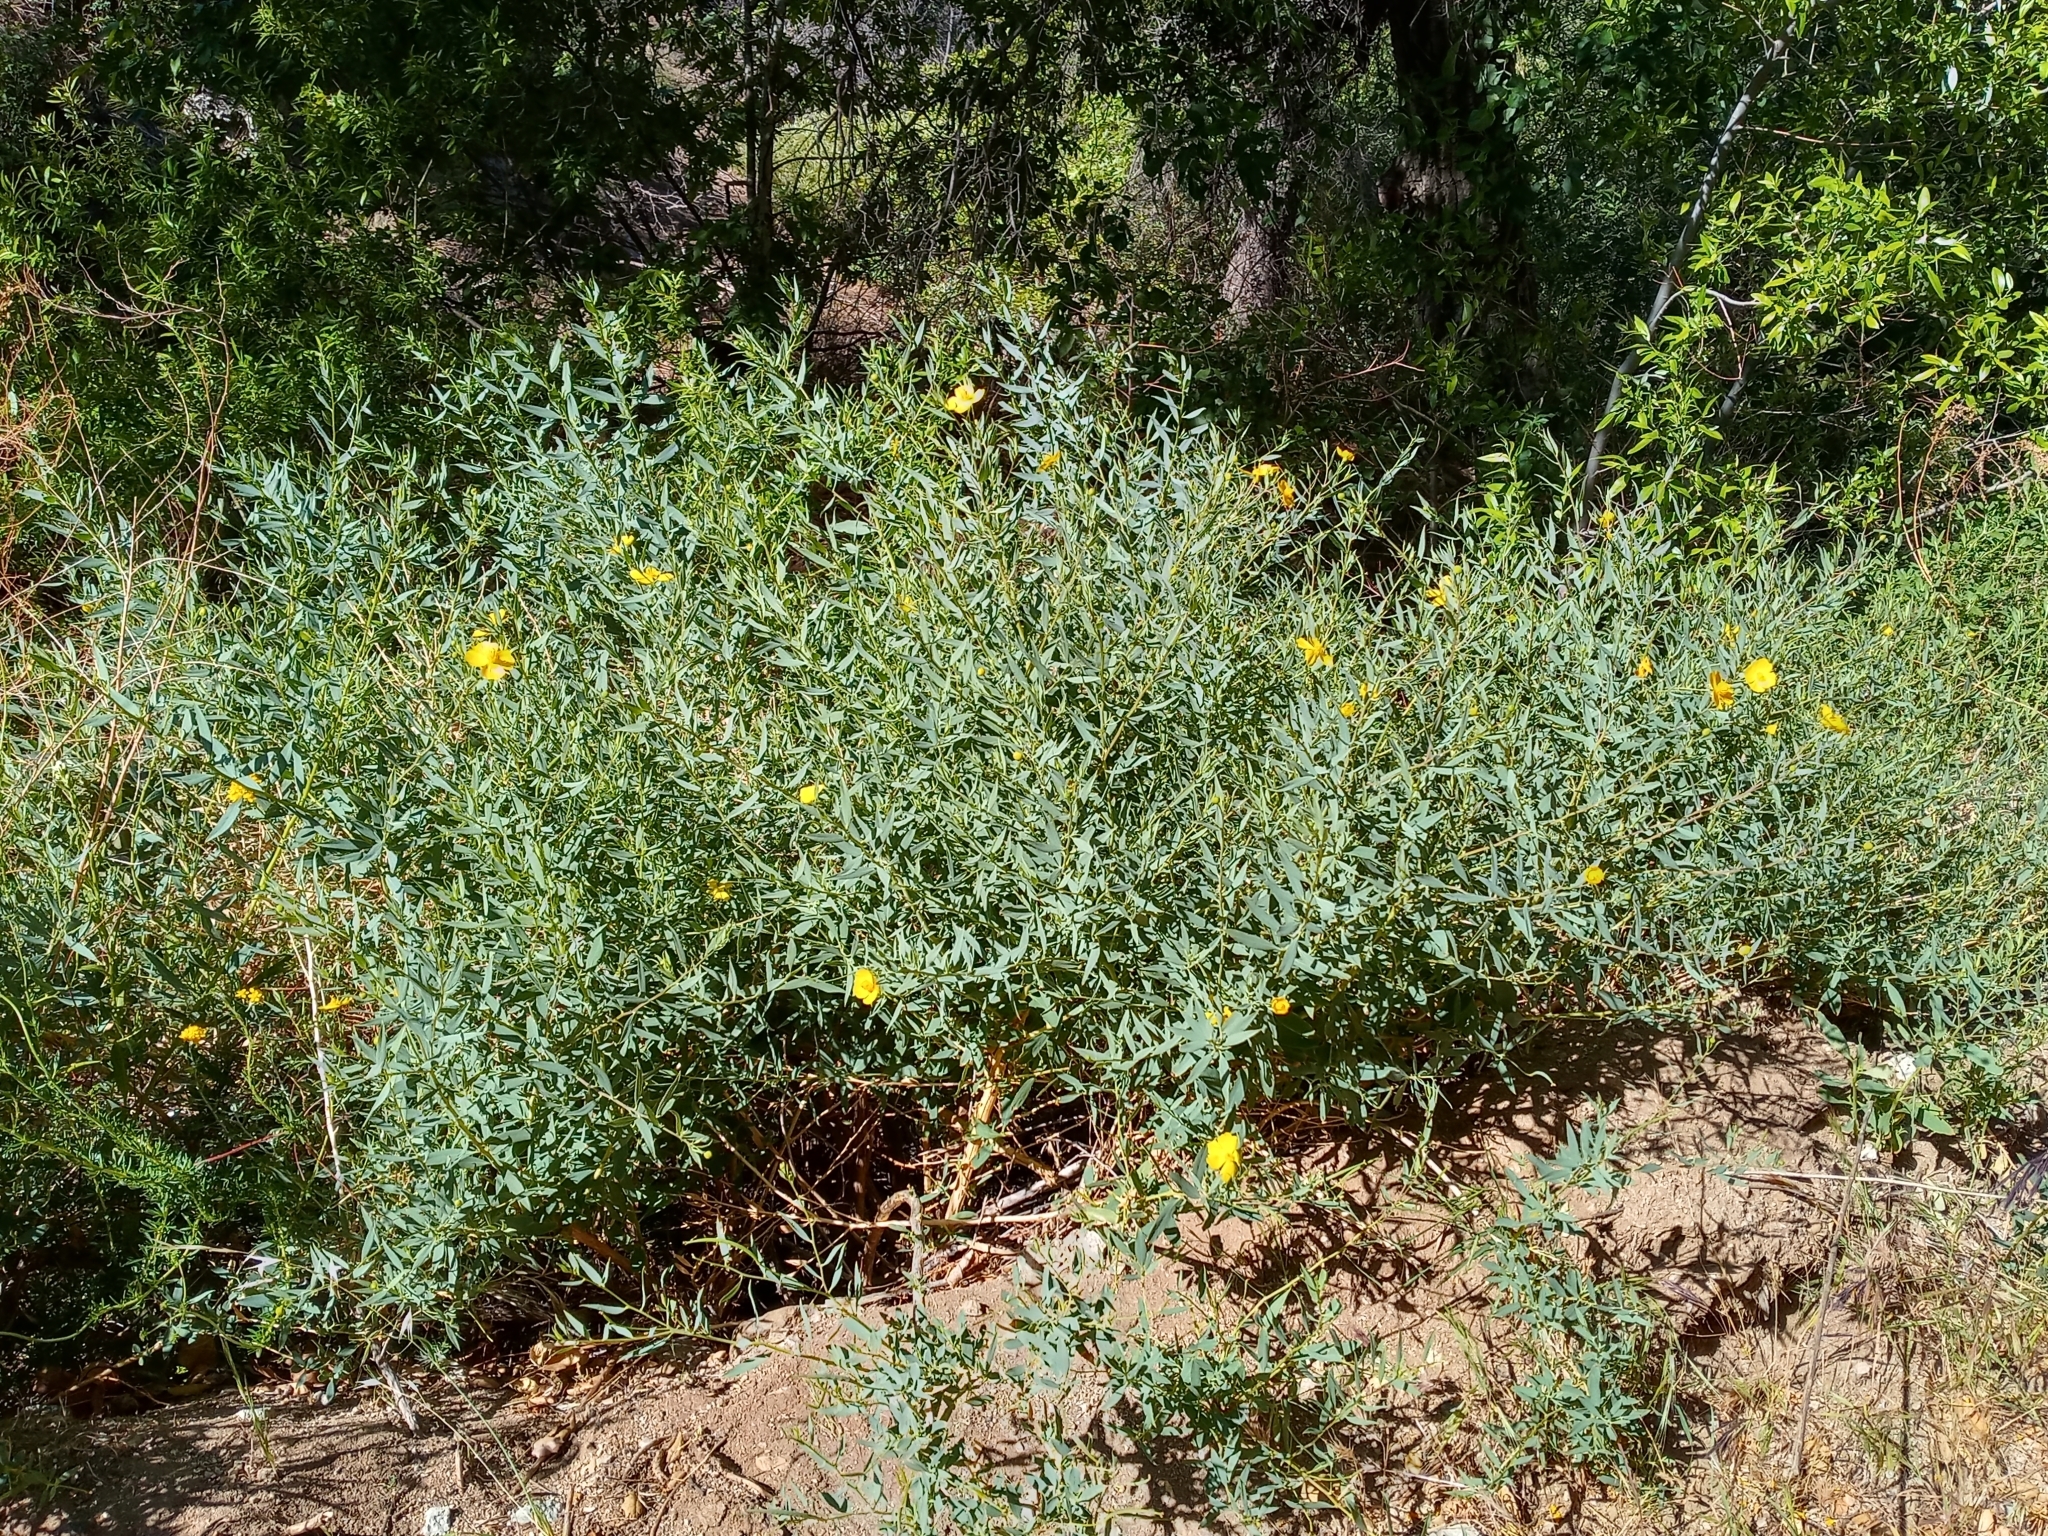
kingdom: Plantae
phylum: Tracheophyta
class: Magnoliopsida
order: Ranunculales
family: Papaveraceae
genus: Dendromecon
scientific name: Dendromecon rigida
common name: Tree poppy
